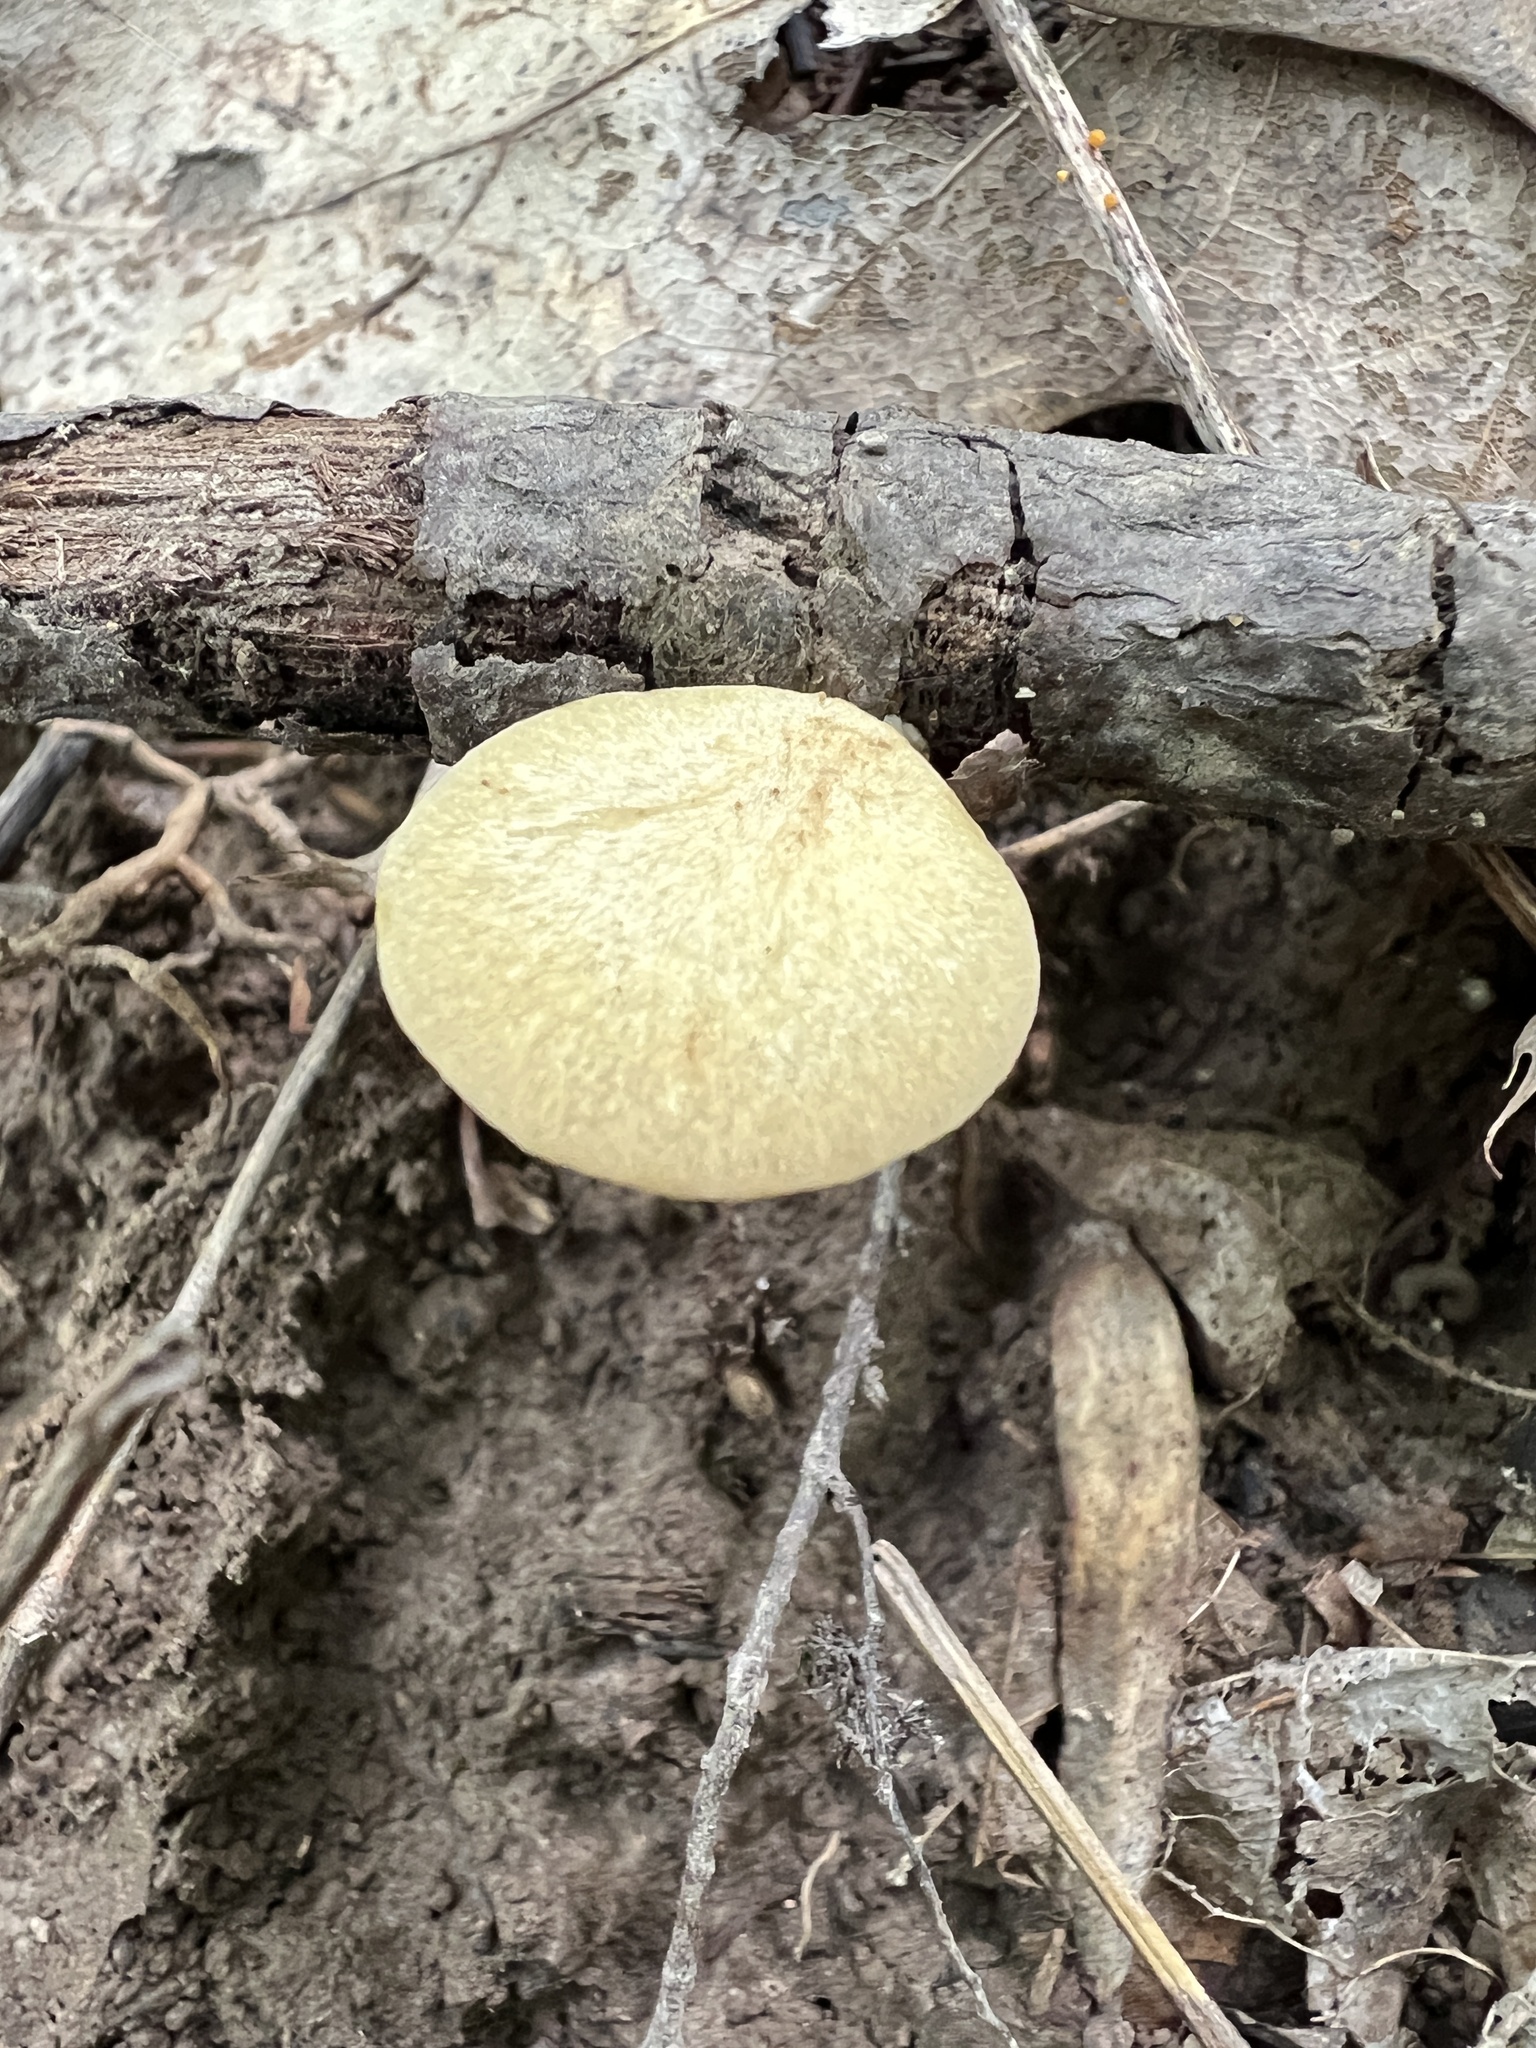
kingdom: Fungi
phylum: Basidiomycota
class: Agaricomycetes
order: Polyporales
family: Polyporaceae
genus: Cerioporus
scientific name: Cerioporus varius
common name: Elegant polypore
